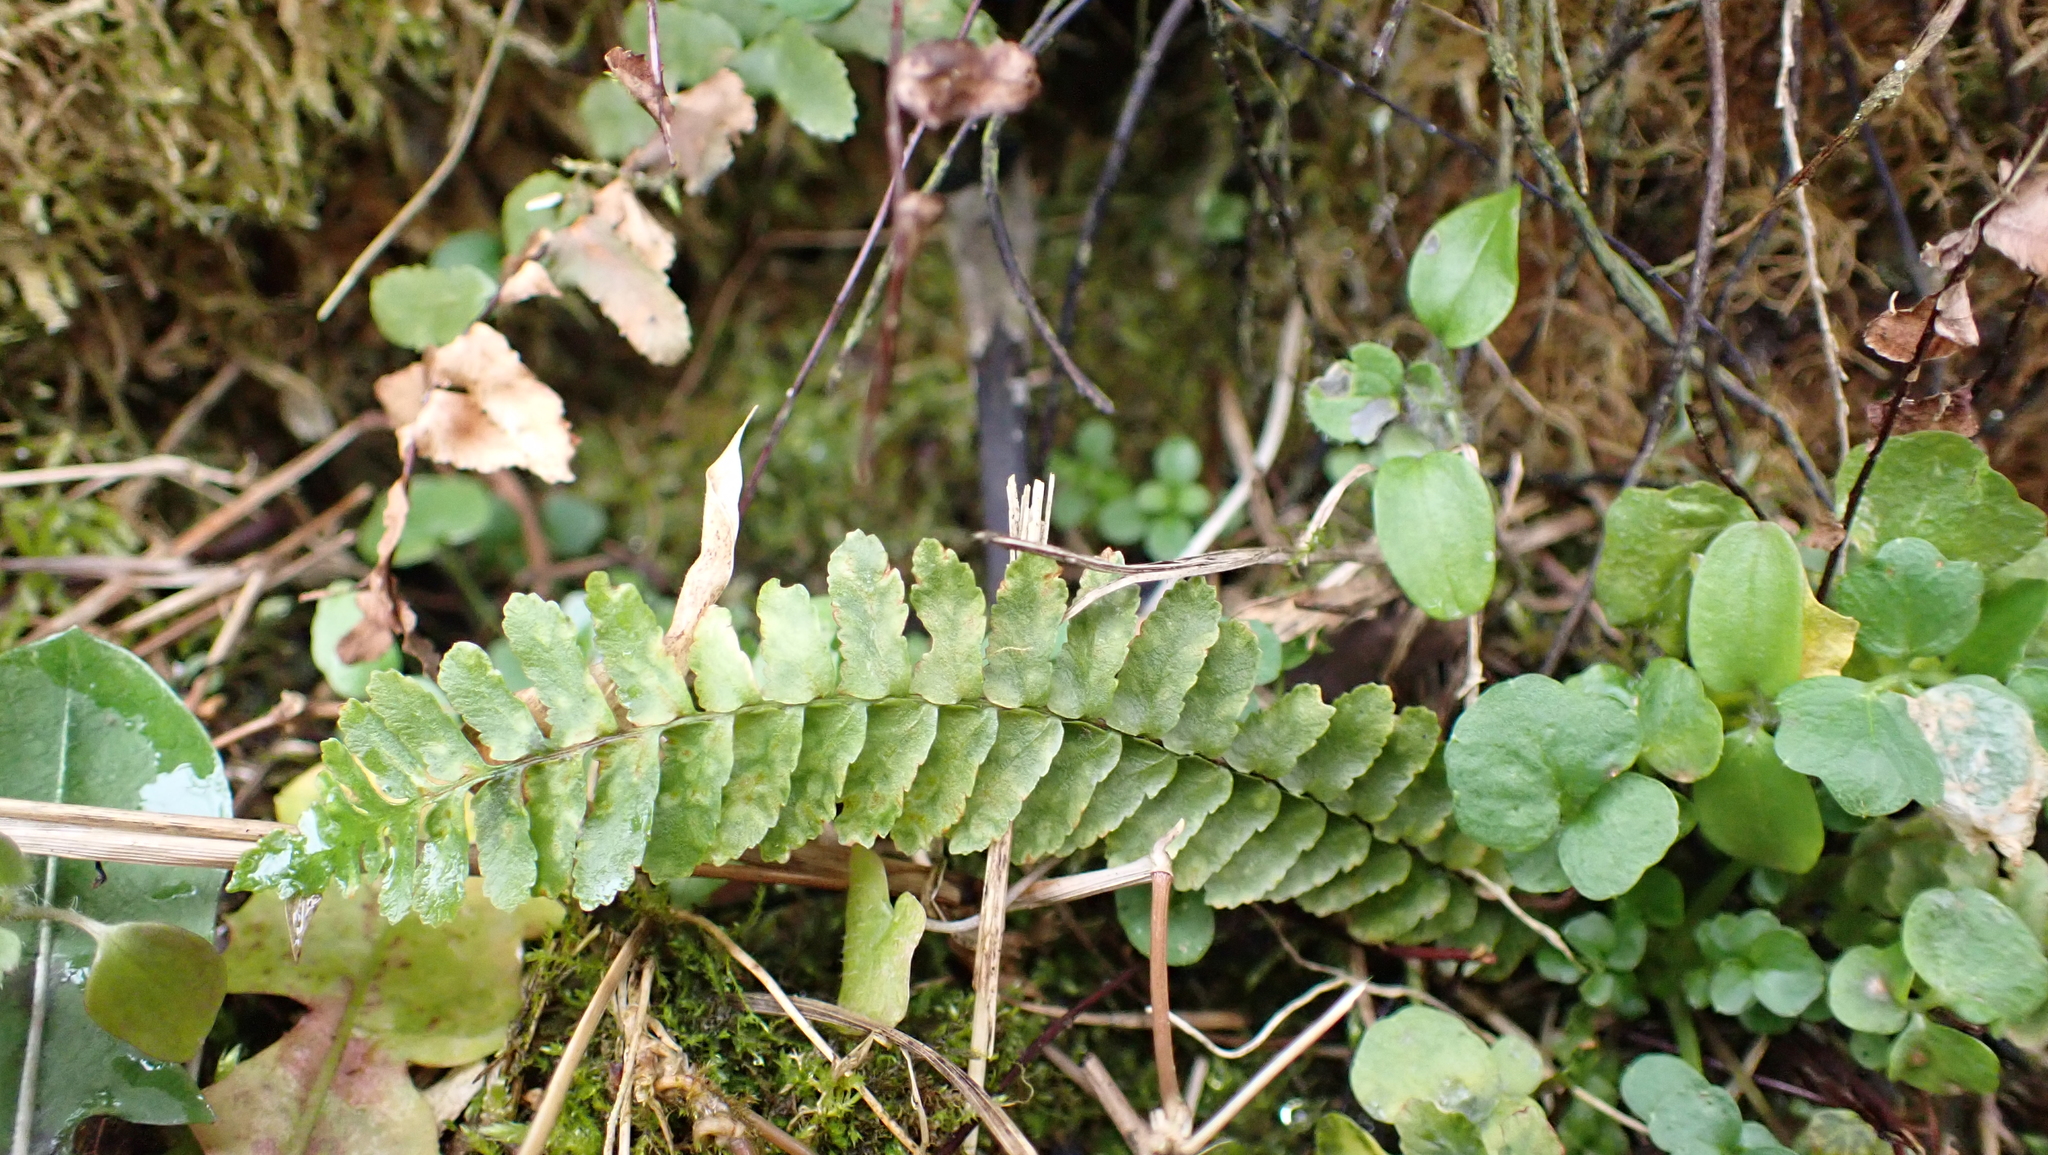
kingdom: Plantae
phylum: Tracheophyta
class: Polypodiopsida
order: Polypodiales
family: Aspleniaceae
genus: Asplenium
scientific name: Asplenium platyneuron
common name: Ebony spleenwort
